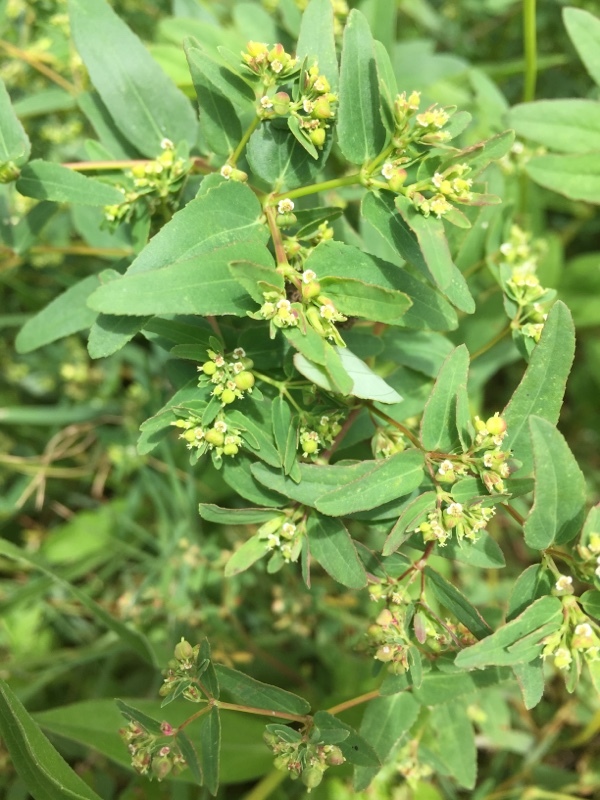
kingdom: Plantae
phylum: Tracheophyta
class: Magnoliopsida
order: Malpighiales
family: Euphorbiaceae
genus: Euphorbia
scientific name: Euphorbia hyssopifolia
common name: Hyssopleaf sandmat
